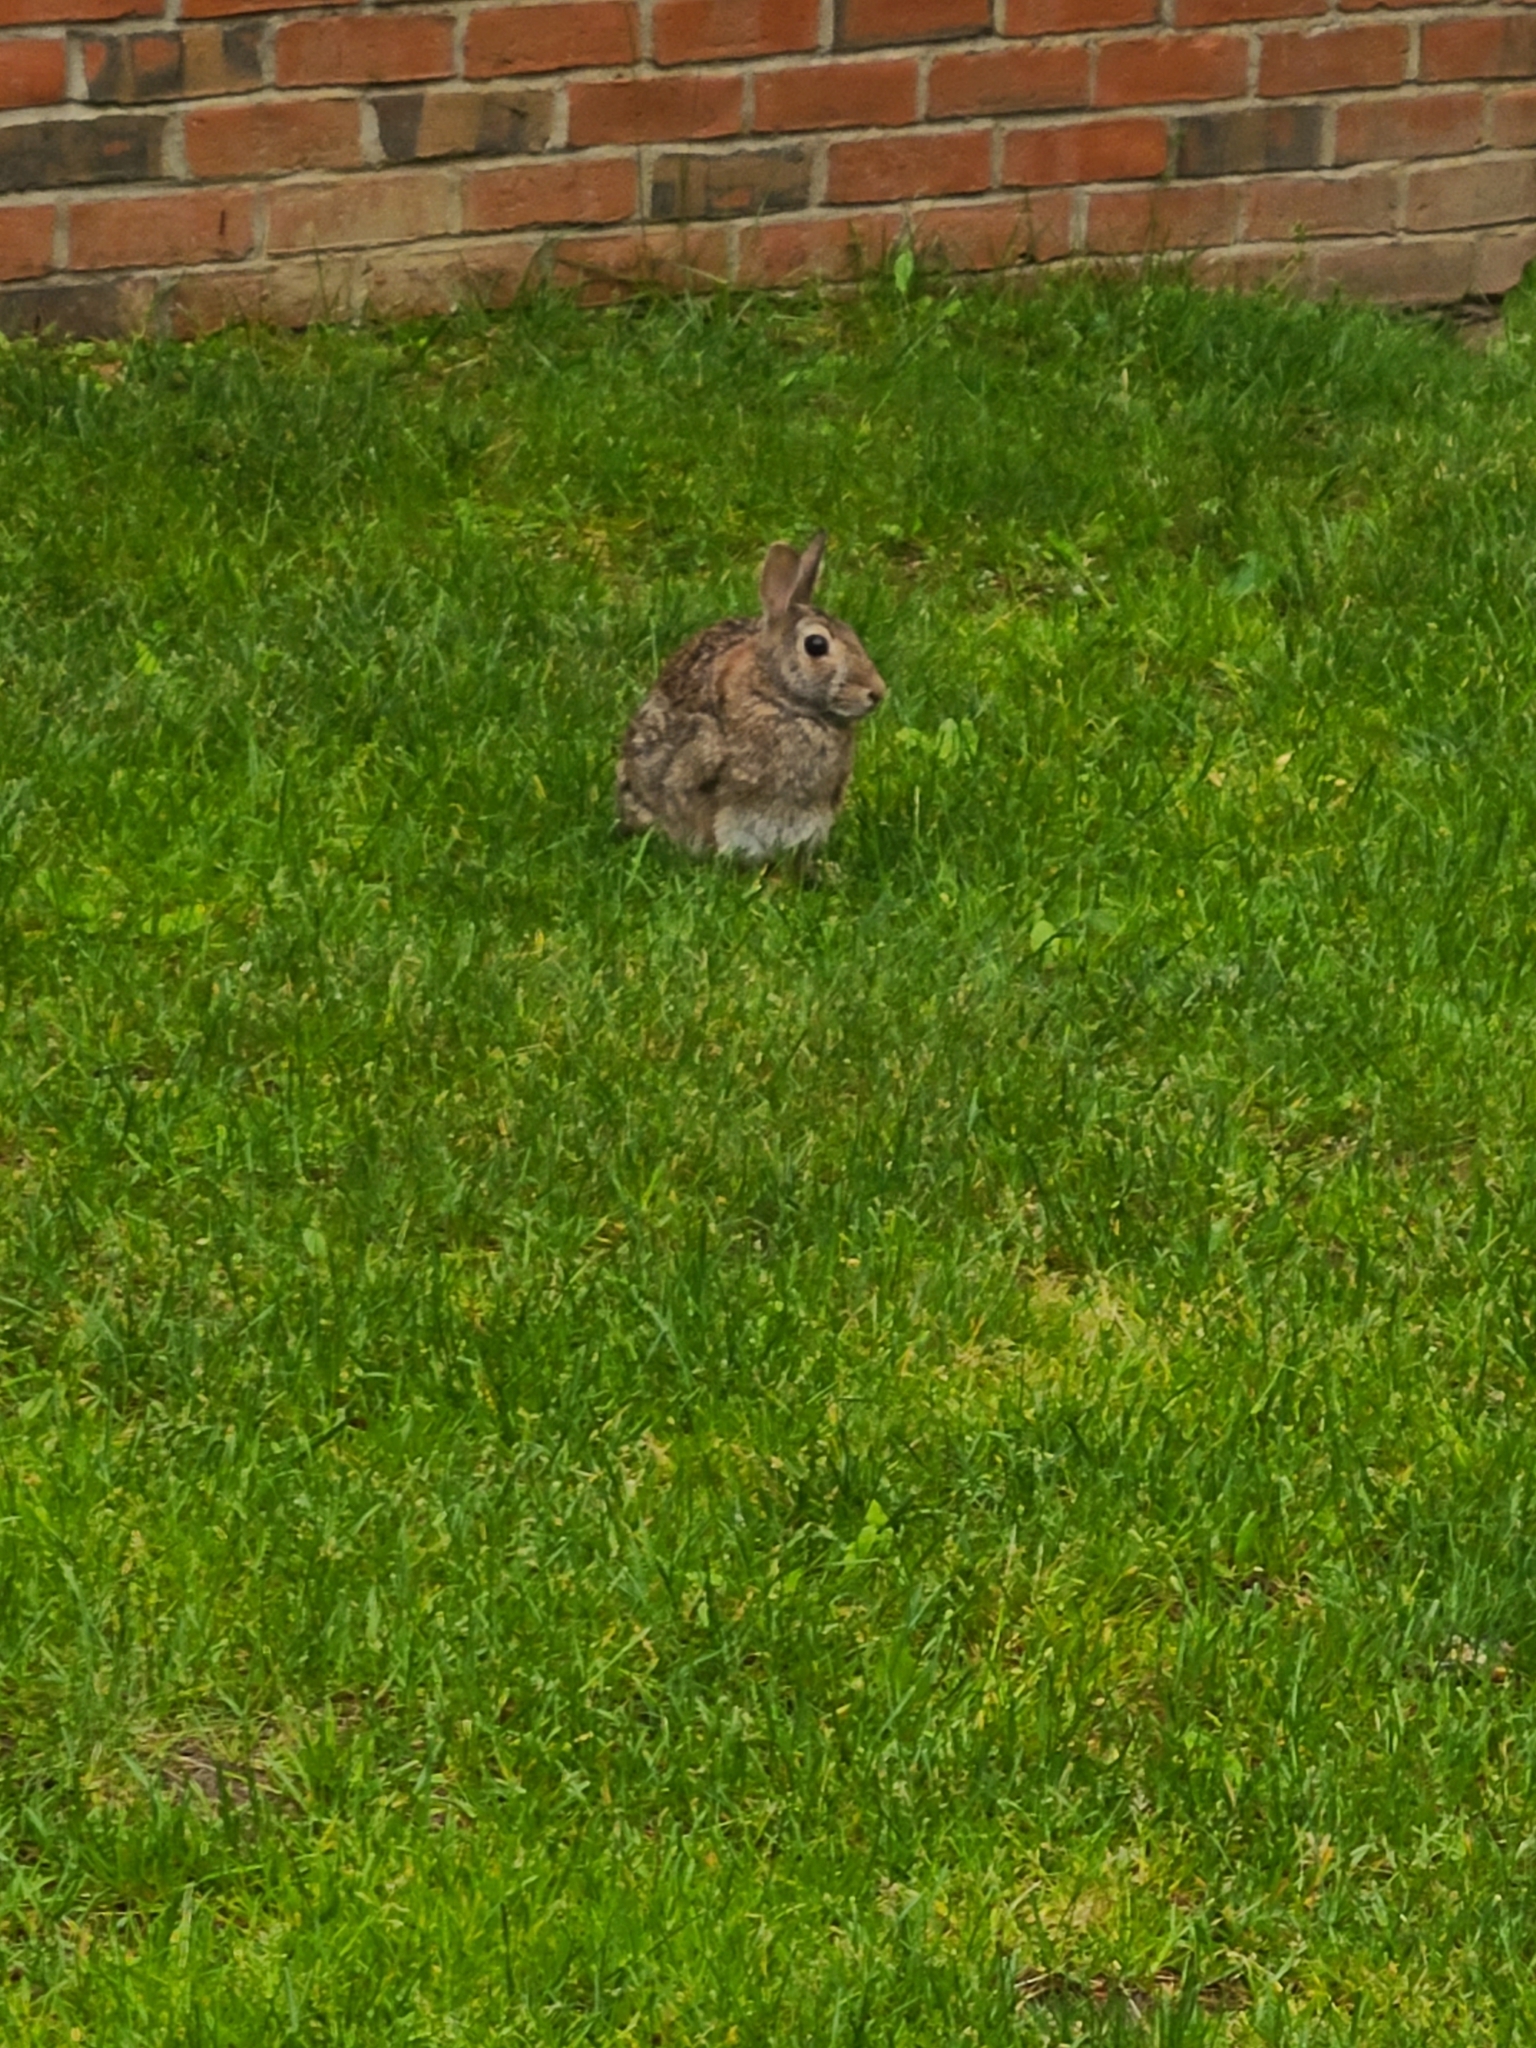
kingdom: Animalia
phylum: Chordata
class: Mammalia
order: Lagomorpha
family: Leporidae
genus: Sylvilagus
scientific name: Sylvilagus floridanus
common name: Eastern cottontail
